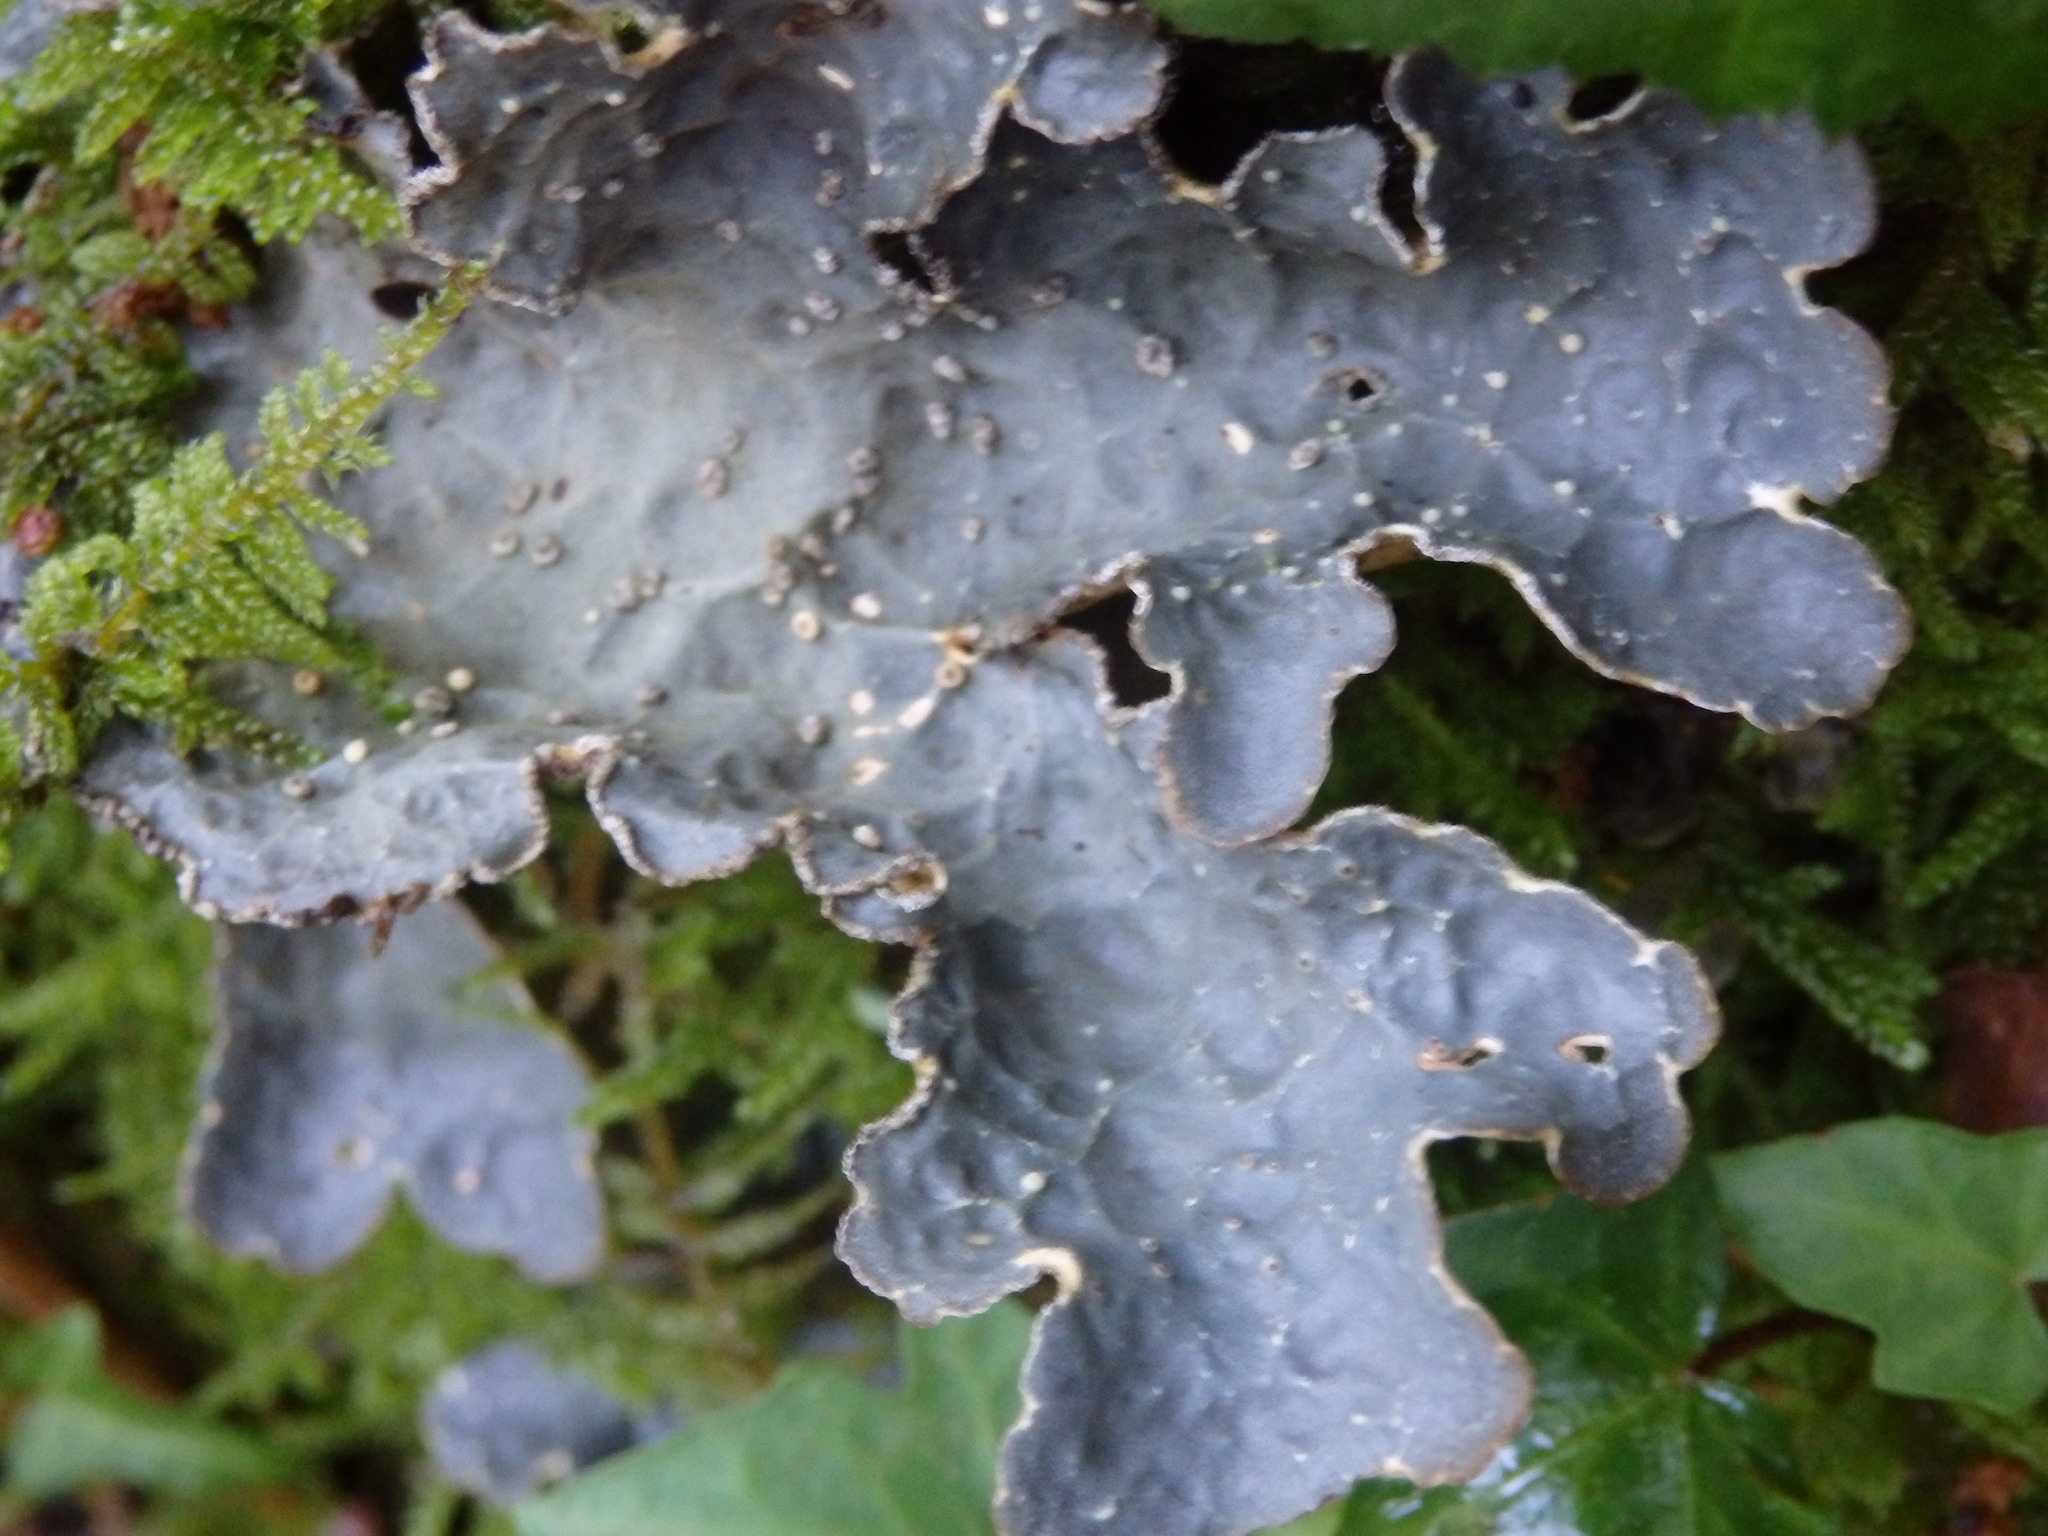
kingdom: Fungi
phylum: Ascomycota
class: Lecanoromycetes
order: Peltigerales
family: Lobariaceae
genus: Lobarina
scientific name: Lobarina scrobiculata
